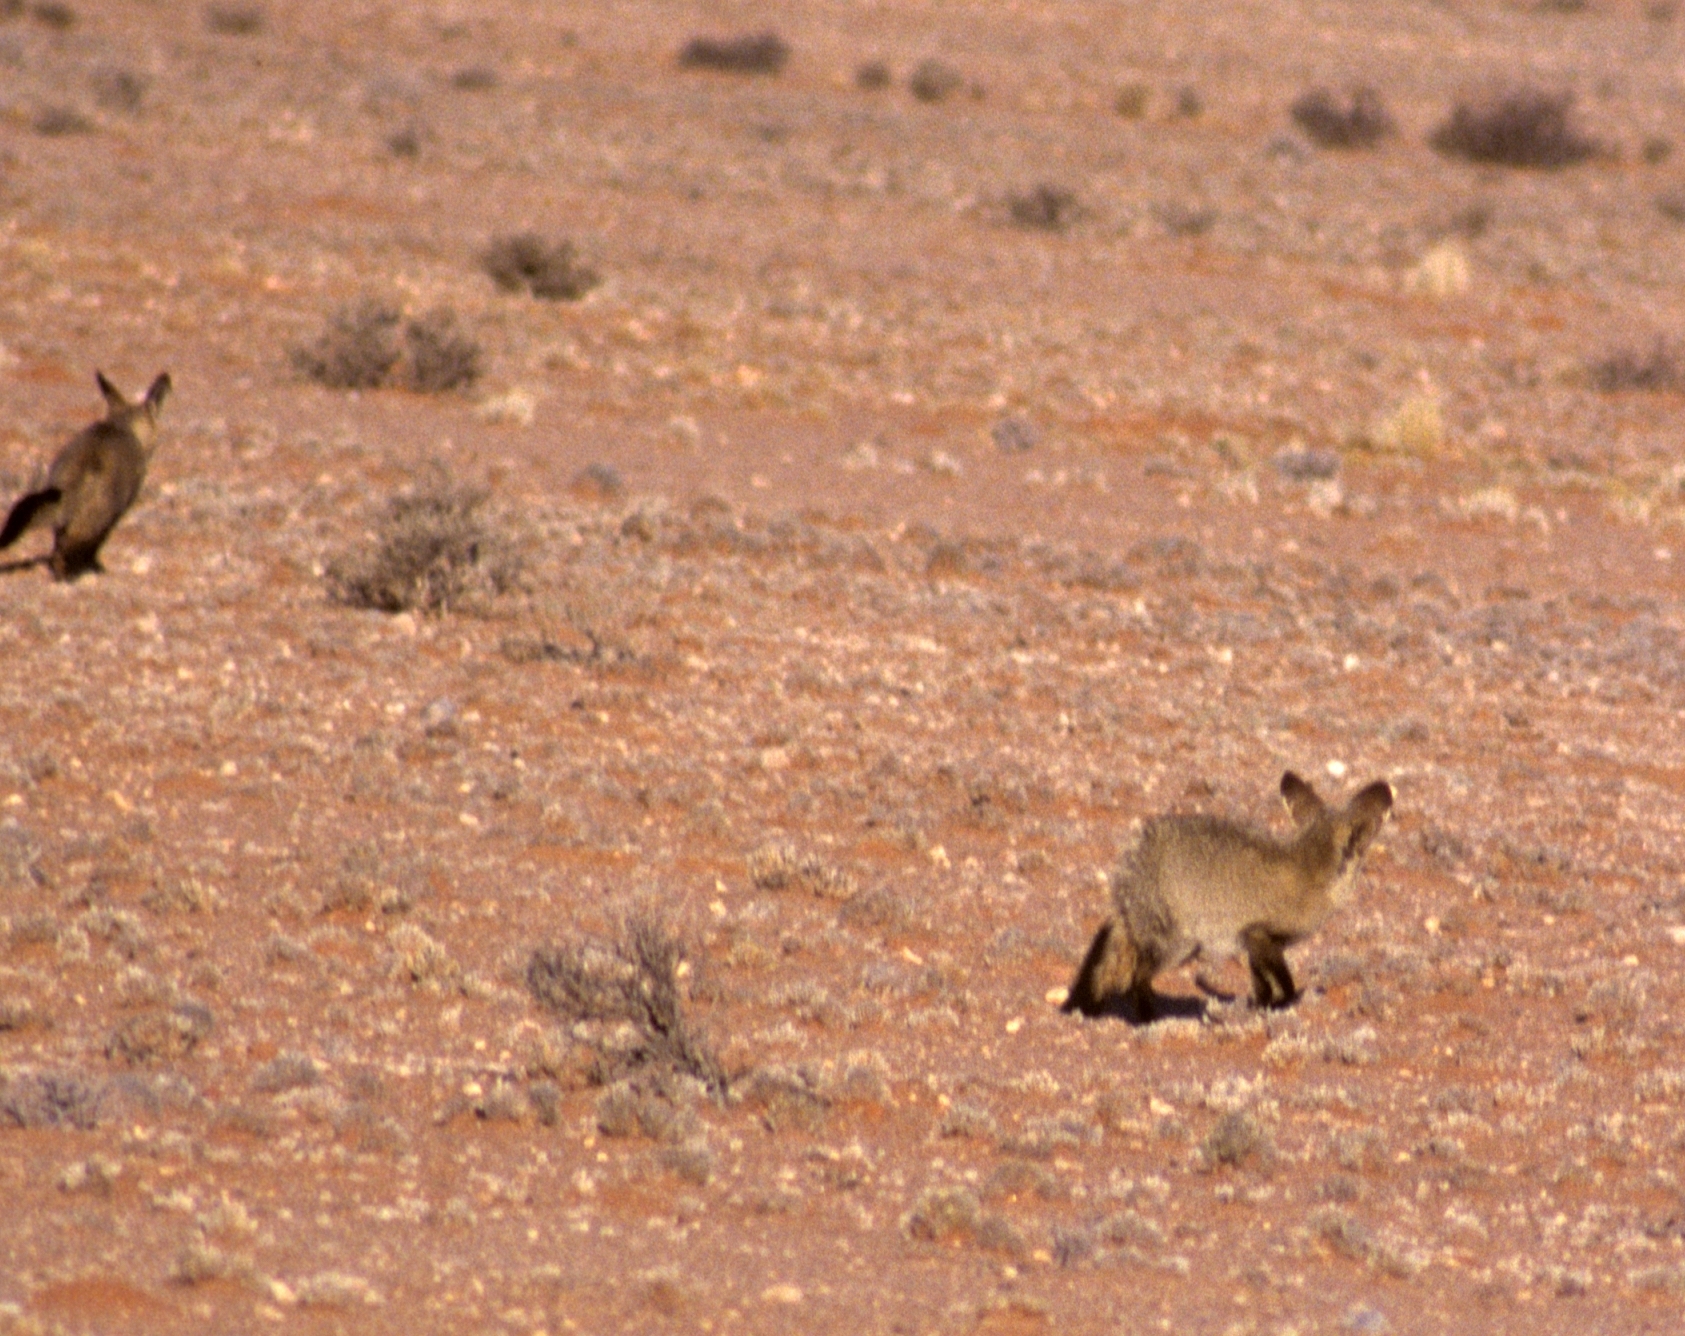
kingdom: Animalia
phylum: Chordata
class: Mammalia
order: Carnivora
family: Canidae
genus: Otocyon
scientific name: Otocyon megalotis
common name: Bat-eared fox
